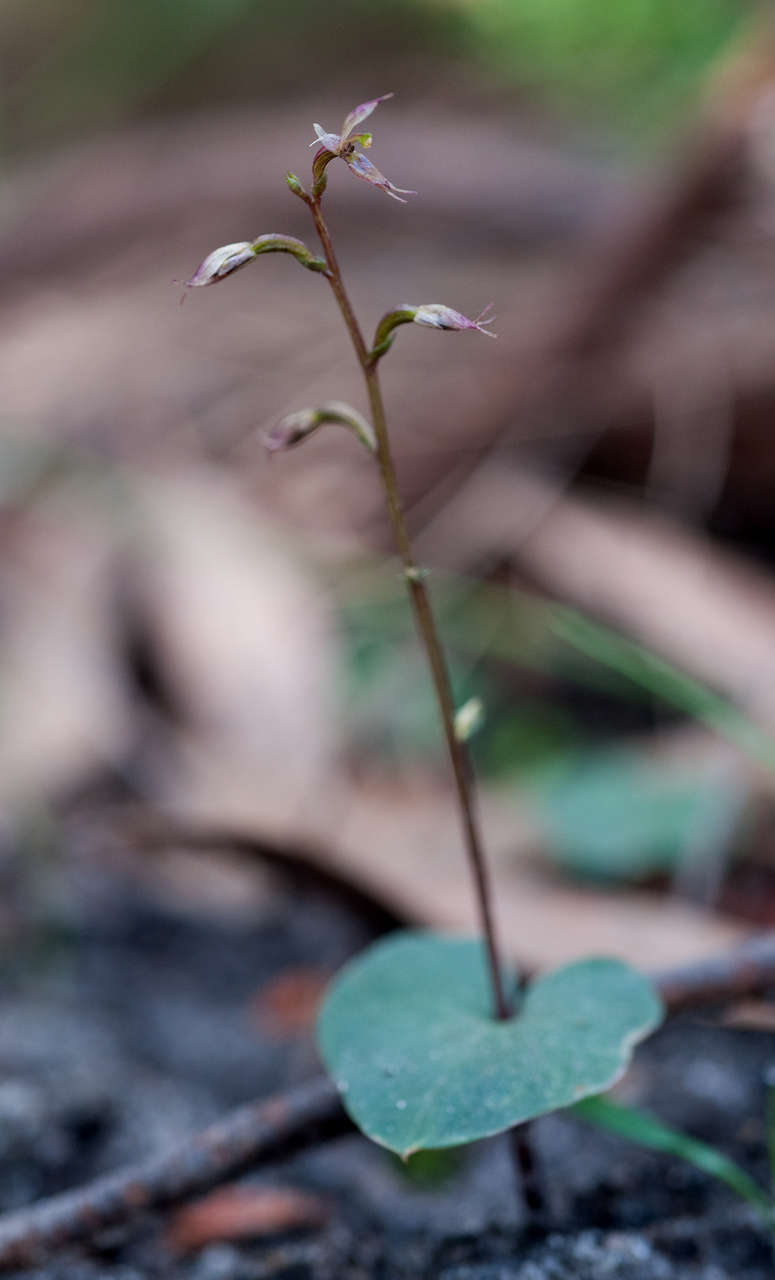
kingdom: Plantae
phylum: Tracheophyta
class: Liliopsida
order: Asparagales
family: Orchidaceae
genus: Acianthus
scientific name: Acianthus pusillus
